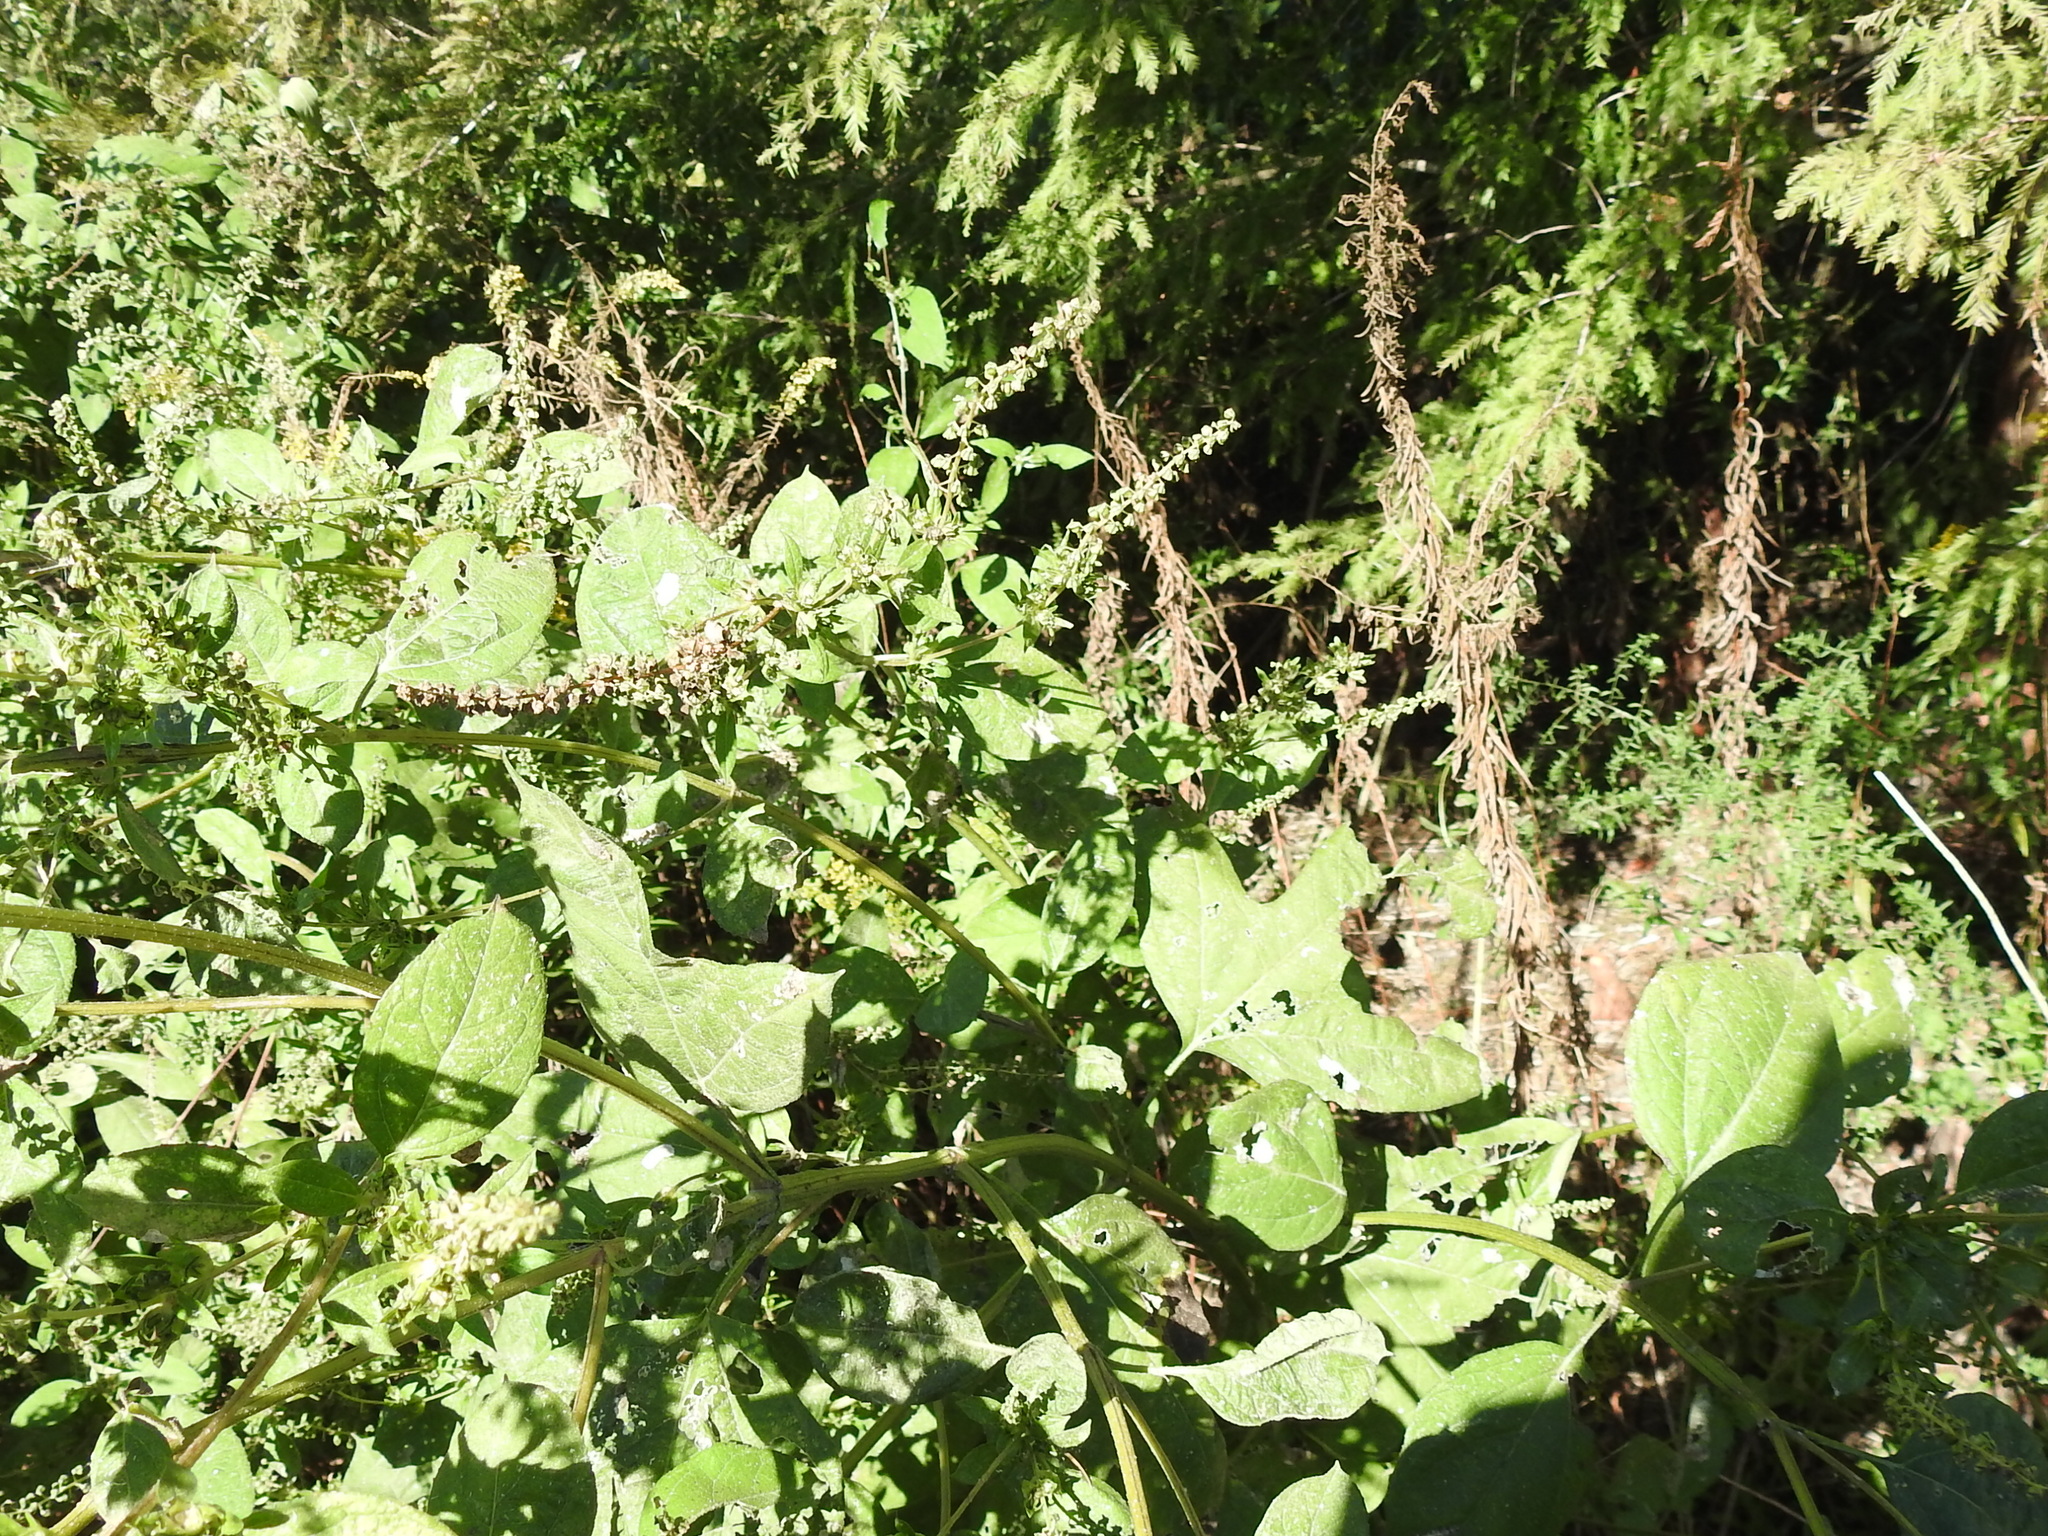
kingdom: Plantae
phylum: Tracheophyta
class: Magnoliopsida
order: Asterales
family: Asteraceae
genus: Ambrosia
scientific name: Ambrosia trifida
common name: Giant ragweed
